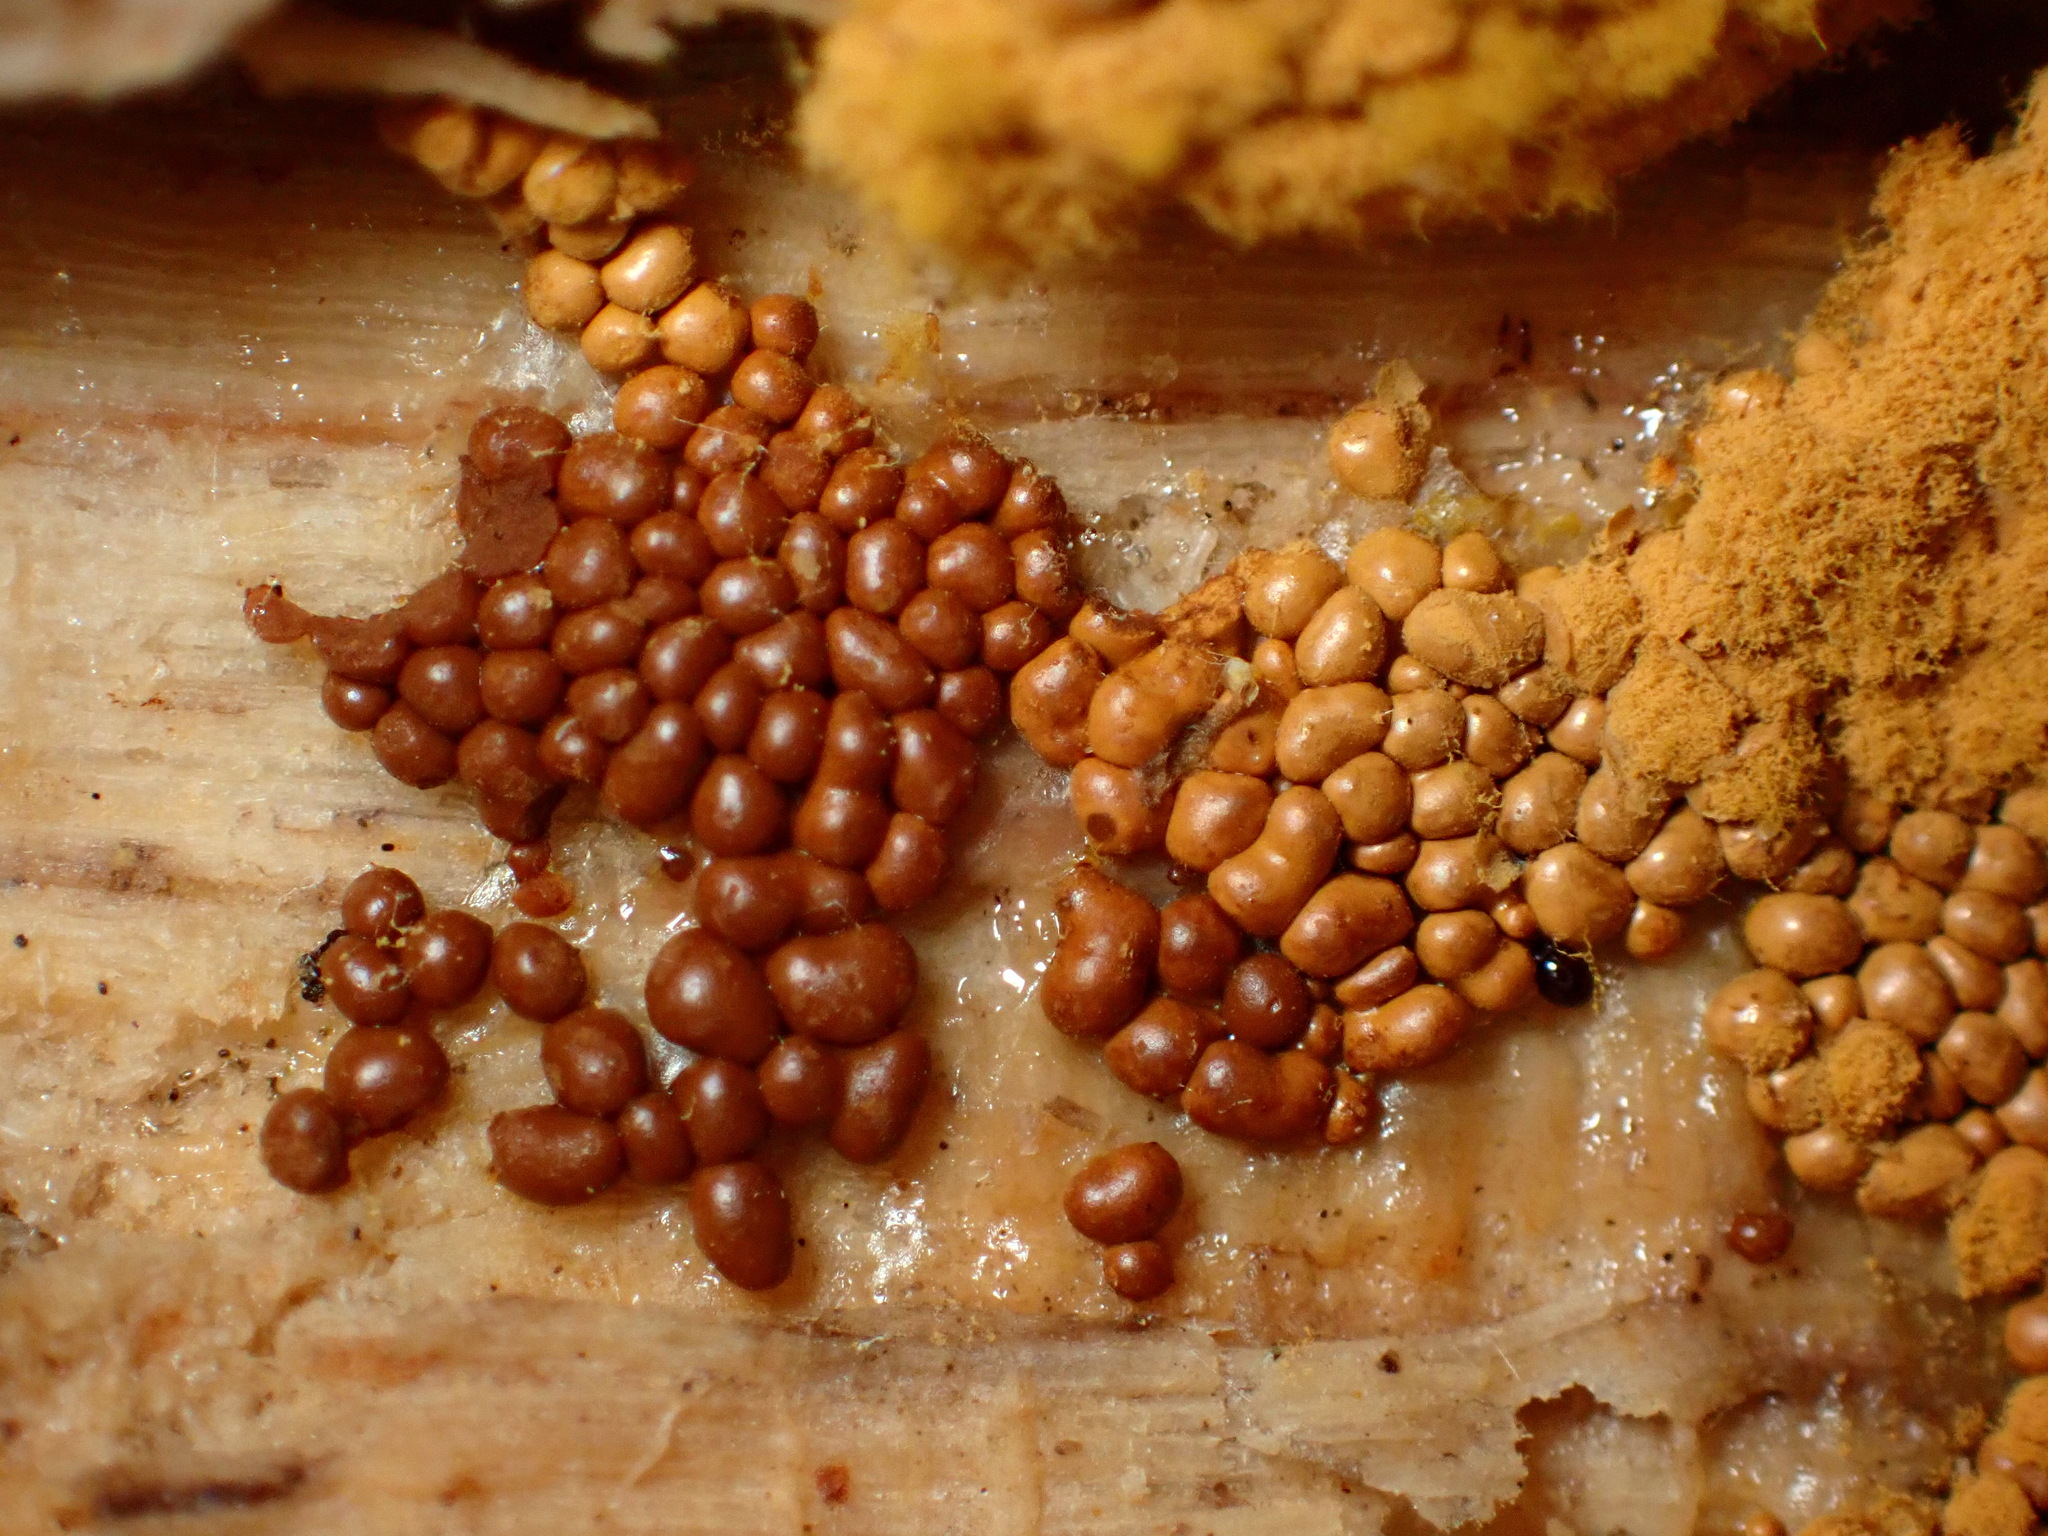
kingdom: Protozoa
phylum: Mycetozoa
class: Myxomycetes
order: Trichiales
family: Trichiaceae
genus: Trichia
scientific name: Trichia varia
